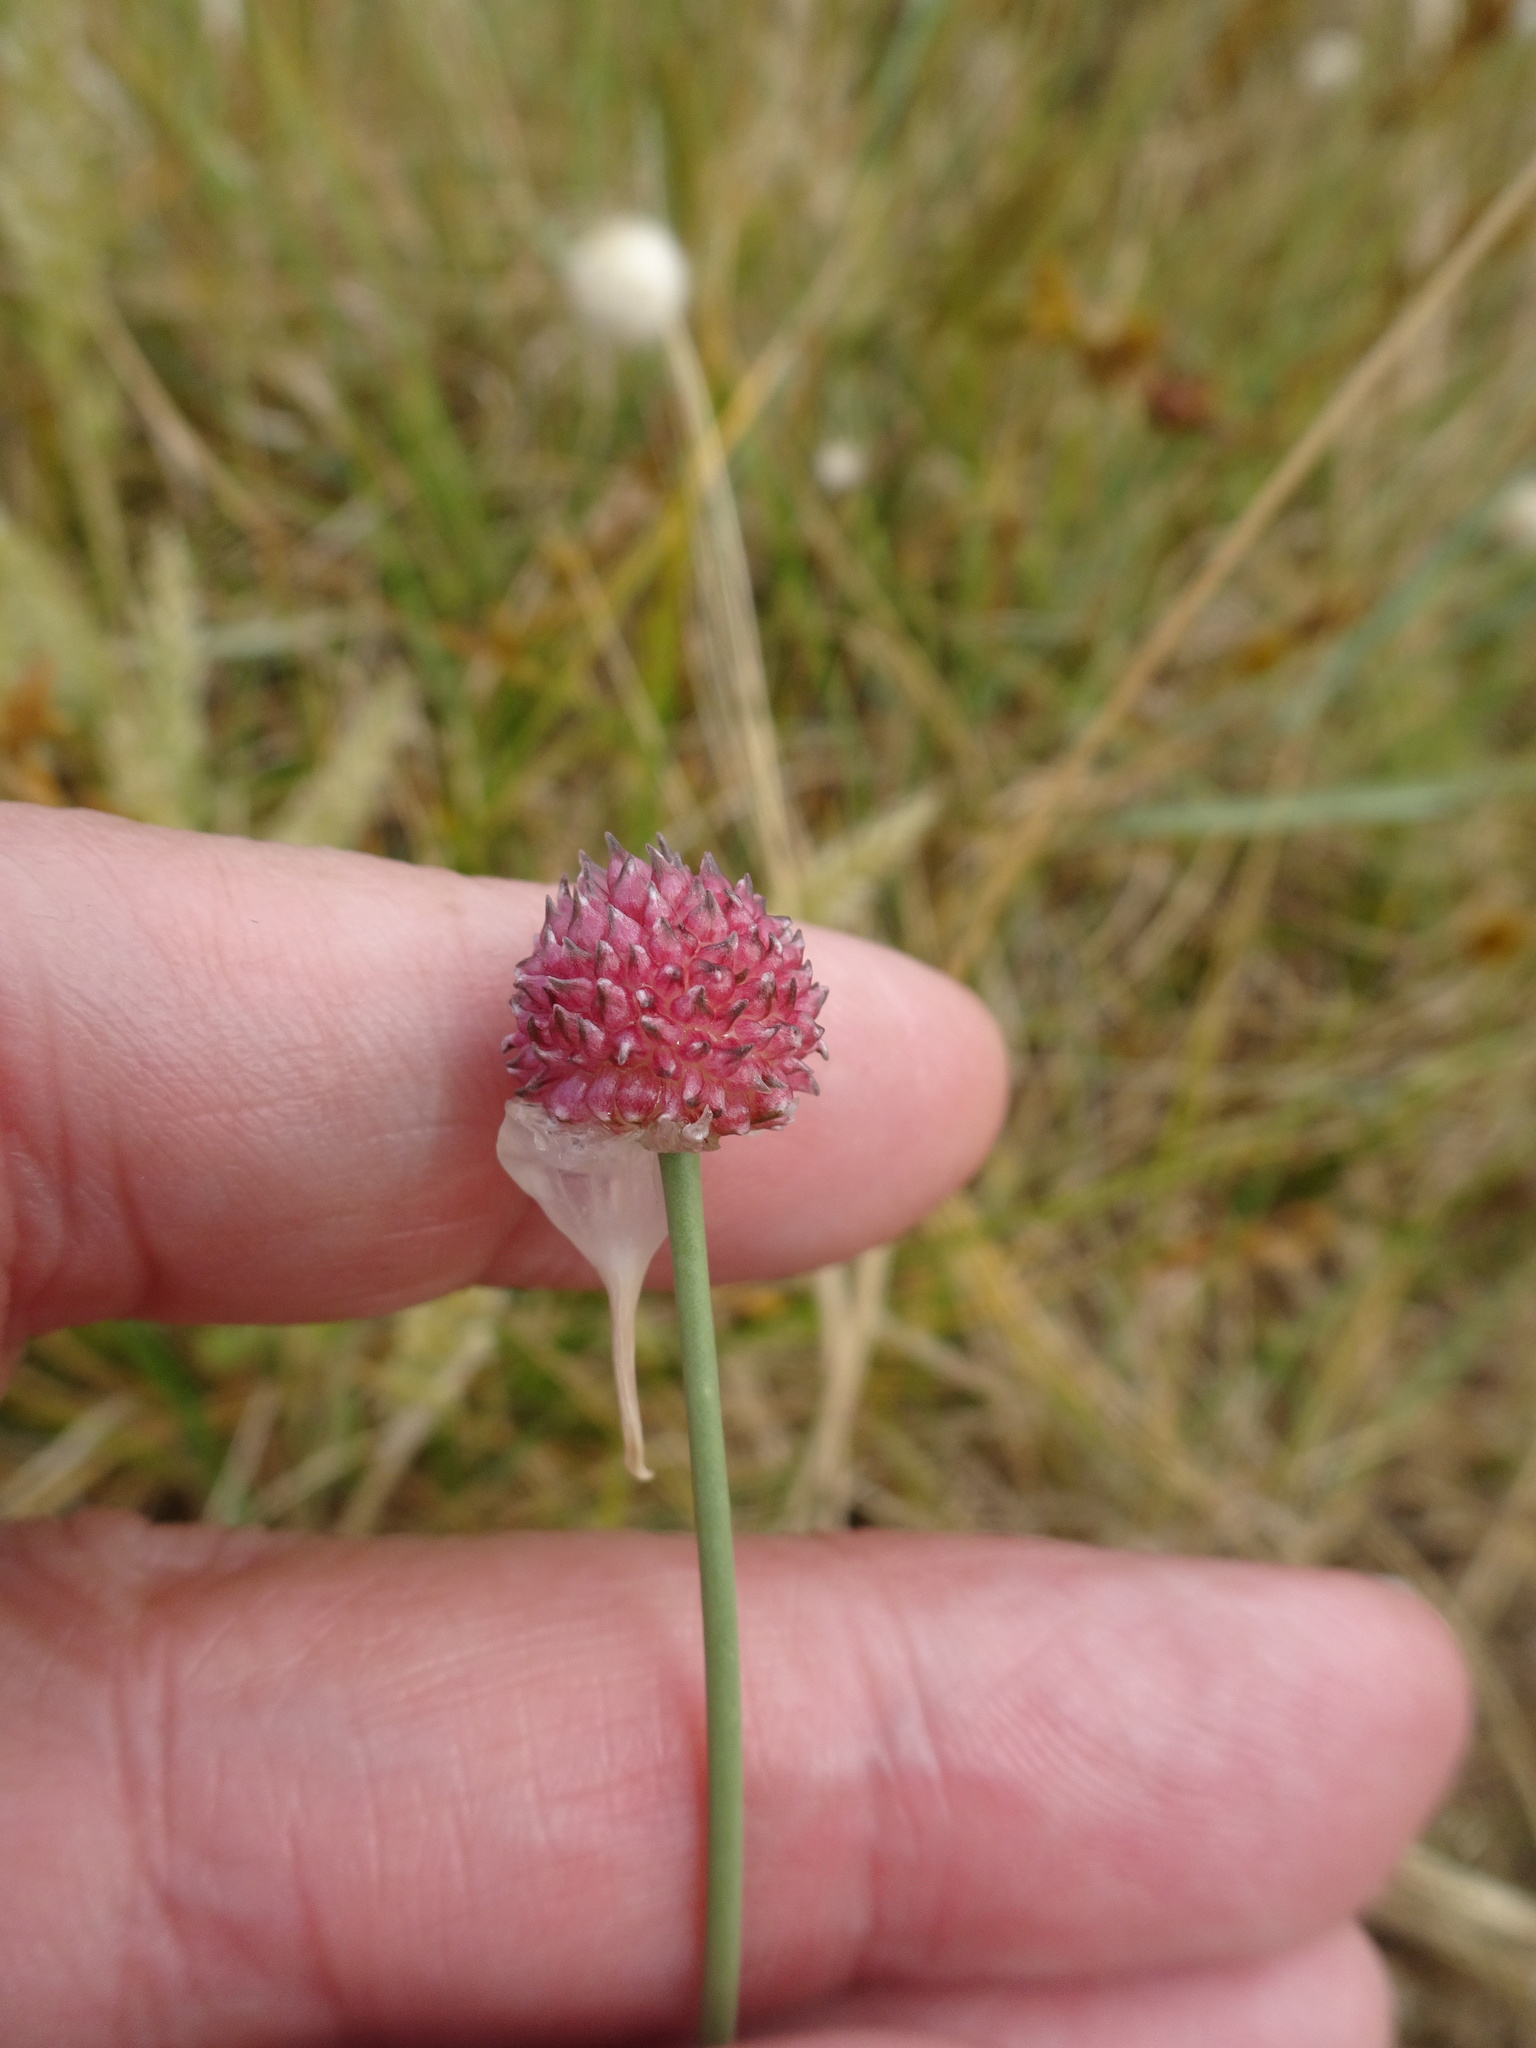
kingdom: Plantae
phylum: Tracheophyta
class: Liliopsida
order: Asparagales
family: Amaryllidaceae
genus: Allium
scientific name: Allium vineale
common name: Crow garlic
